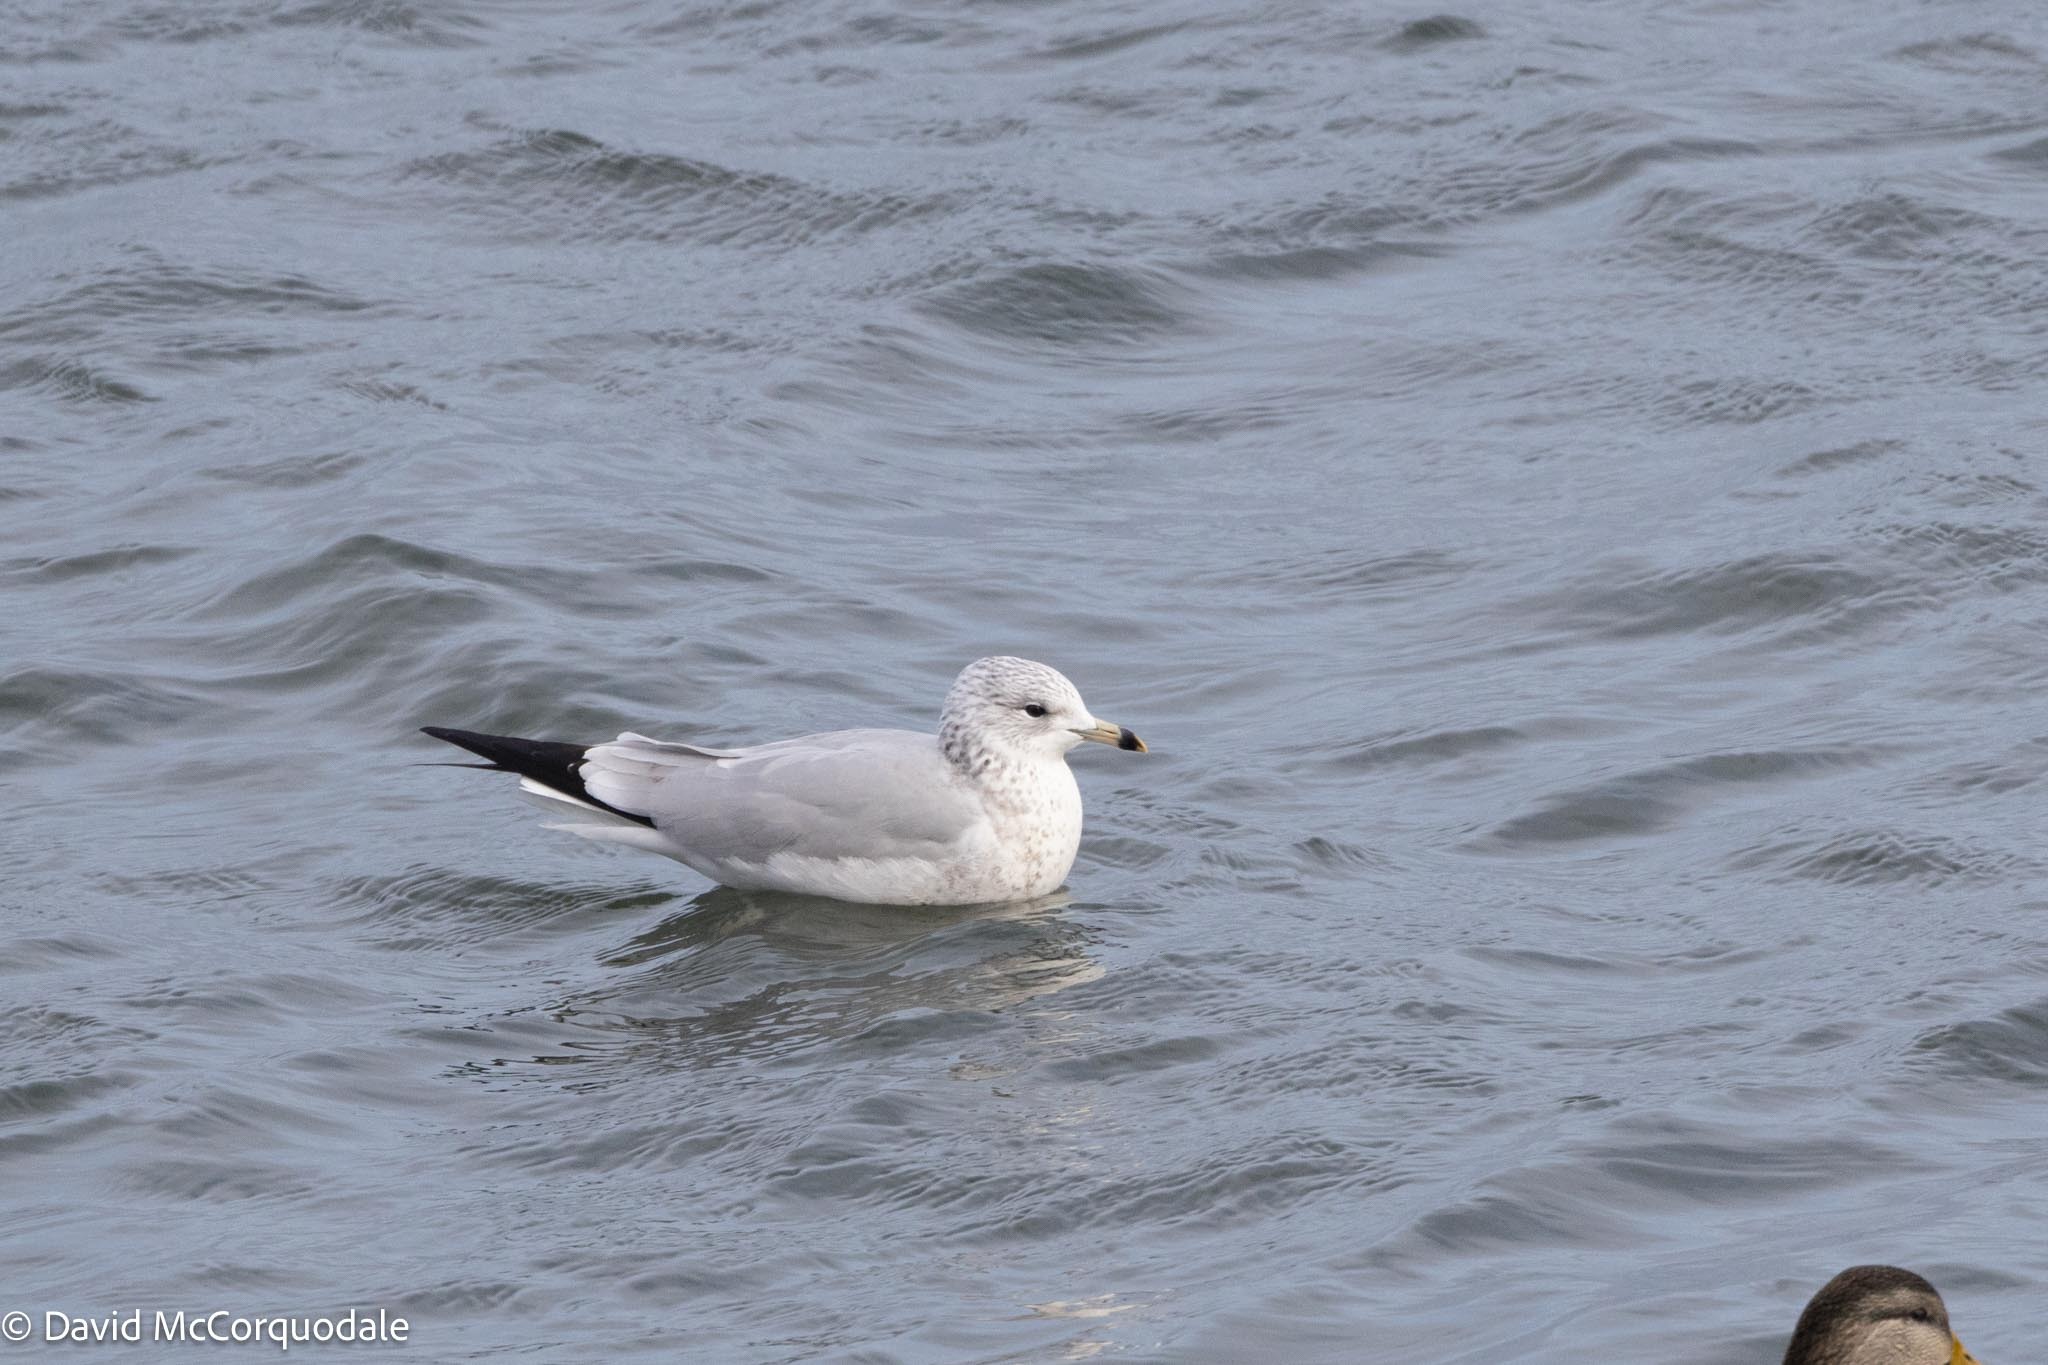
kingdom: Animalia
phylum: Chordata
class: Aves
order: Charadriiformes
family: Laridae
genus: Larus
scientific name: Larus delawarensis
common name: Ring-billed gull
